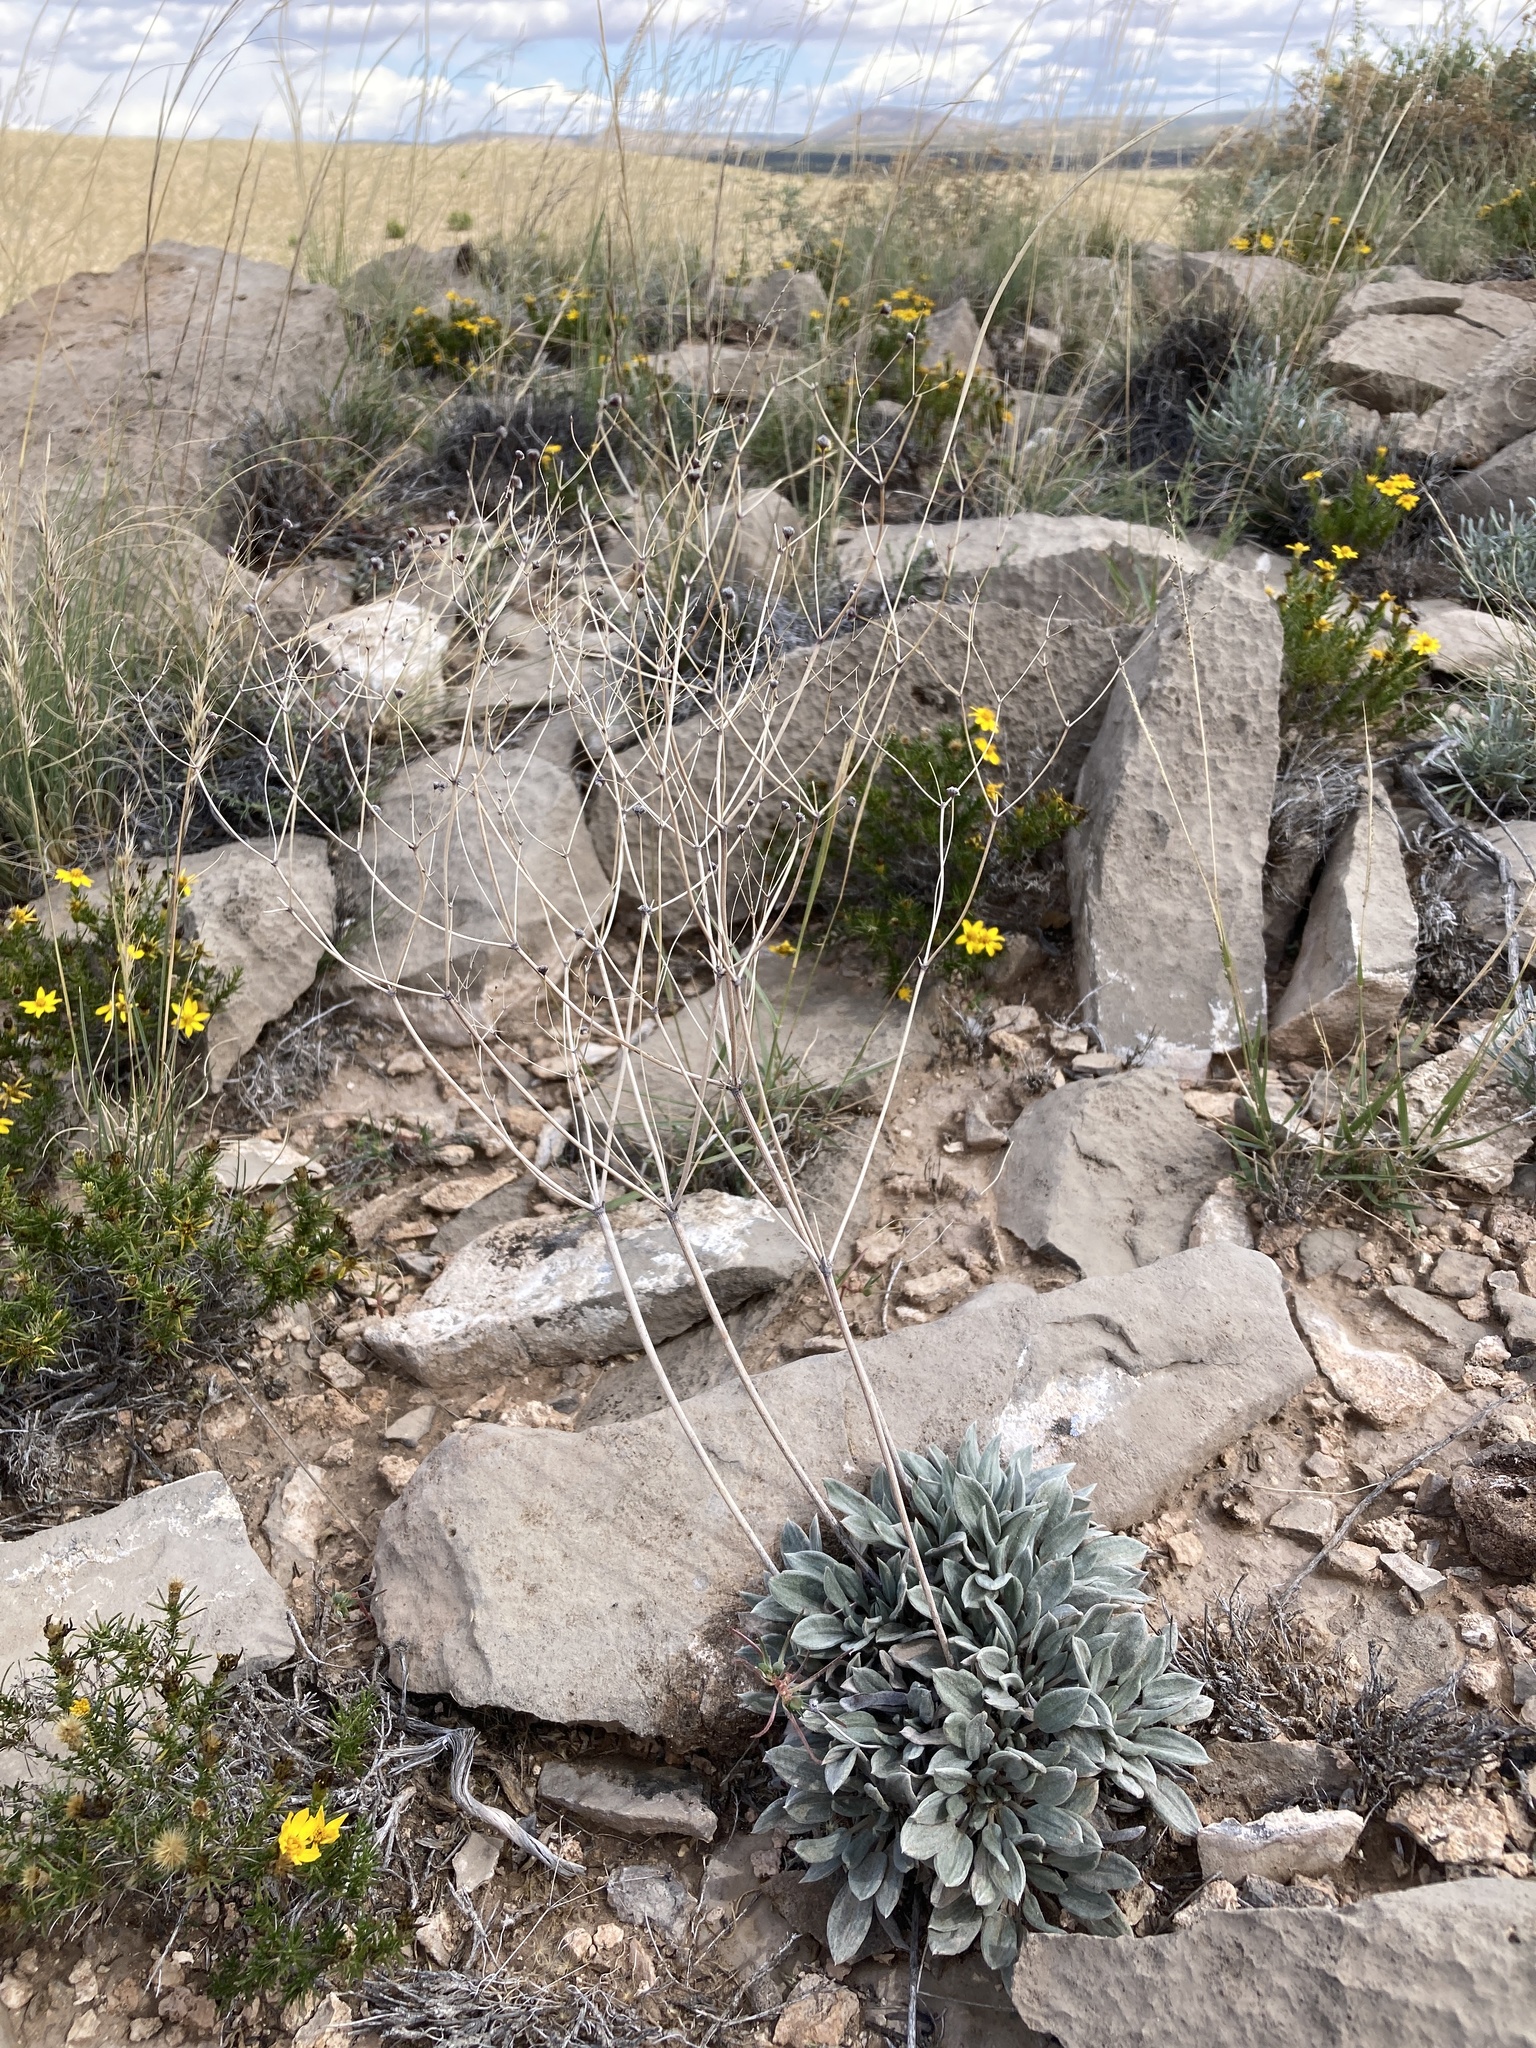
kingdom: Plantae
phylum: Tracheophyta
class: Magnoliopsida
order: Caryophyllales
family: Polygonaceae
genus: Eriogonum
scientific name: Eriogonum havardii
